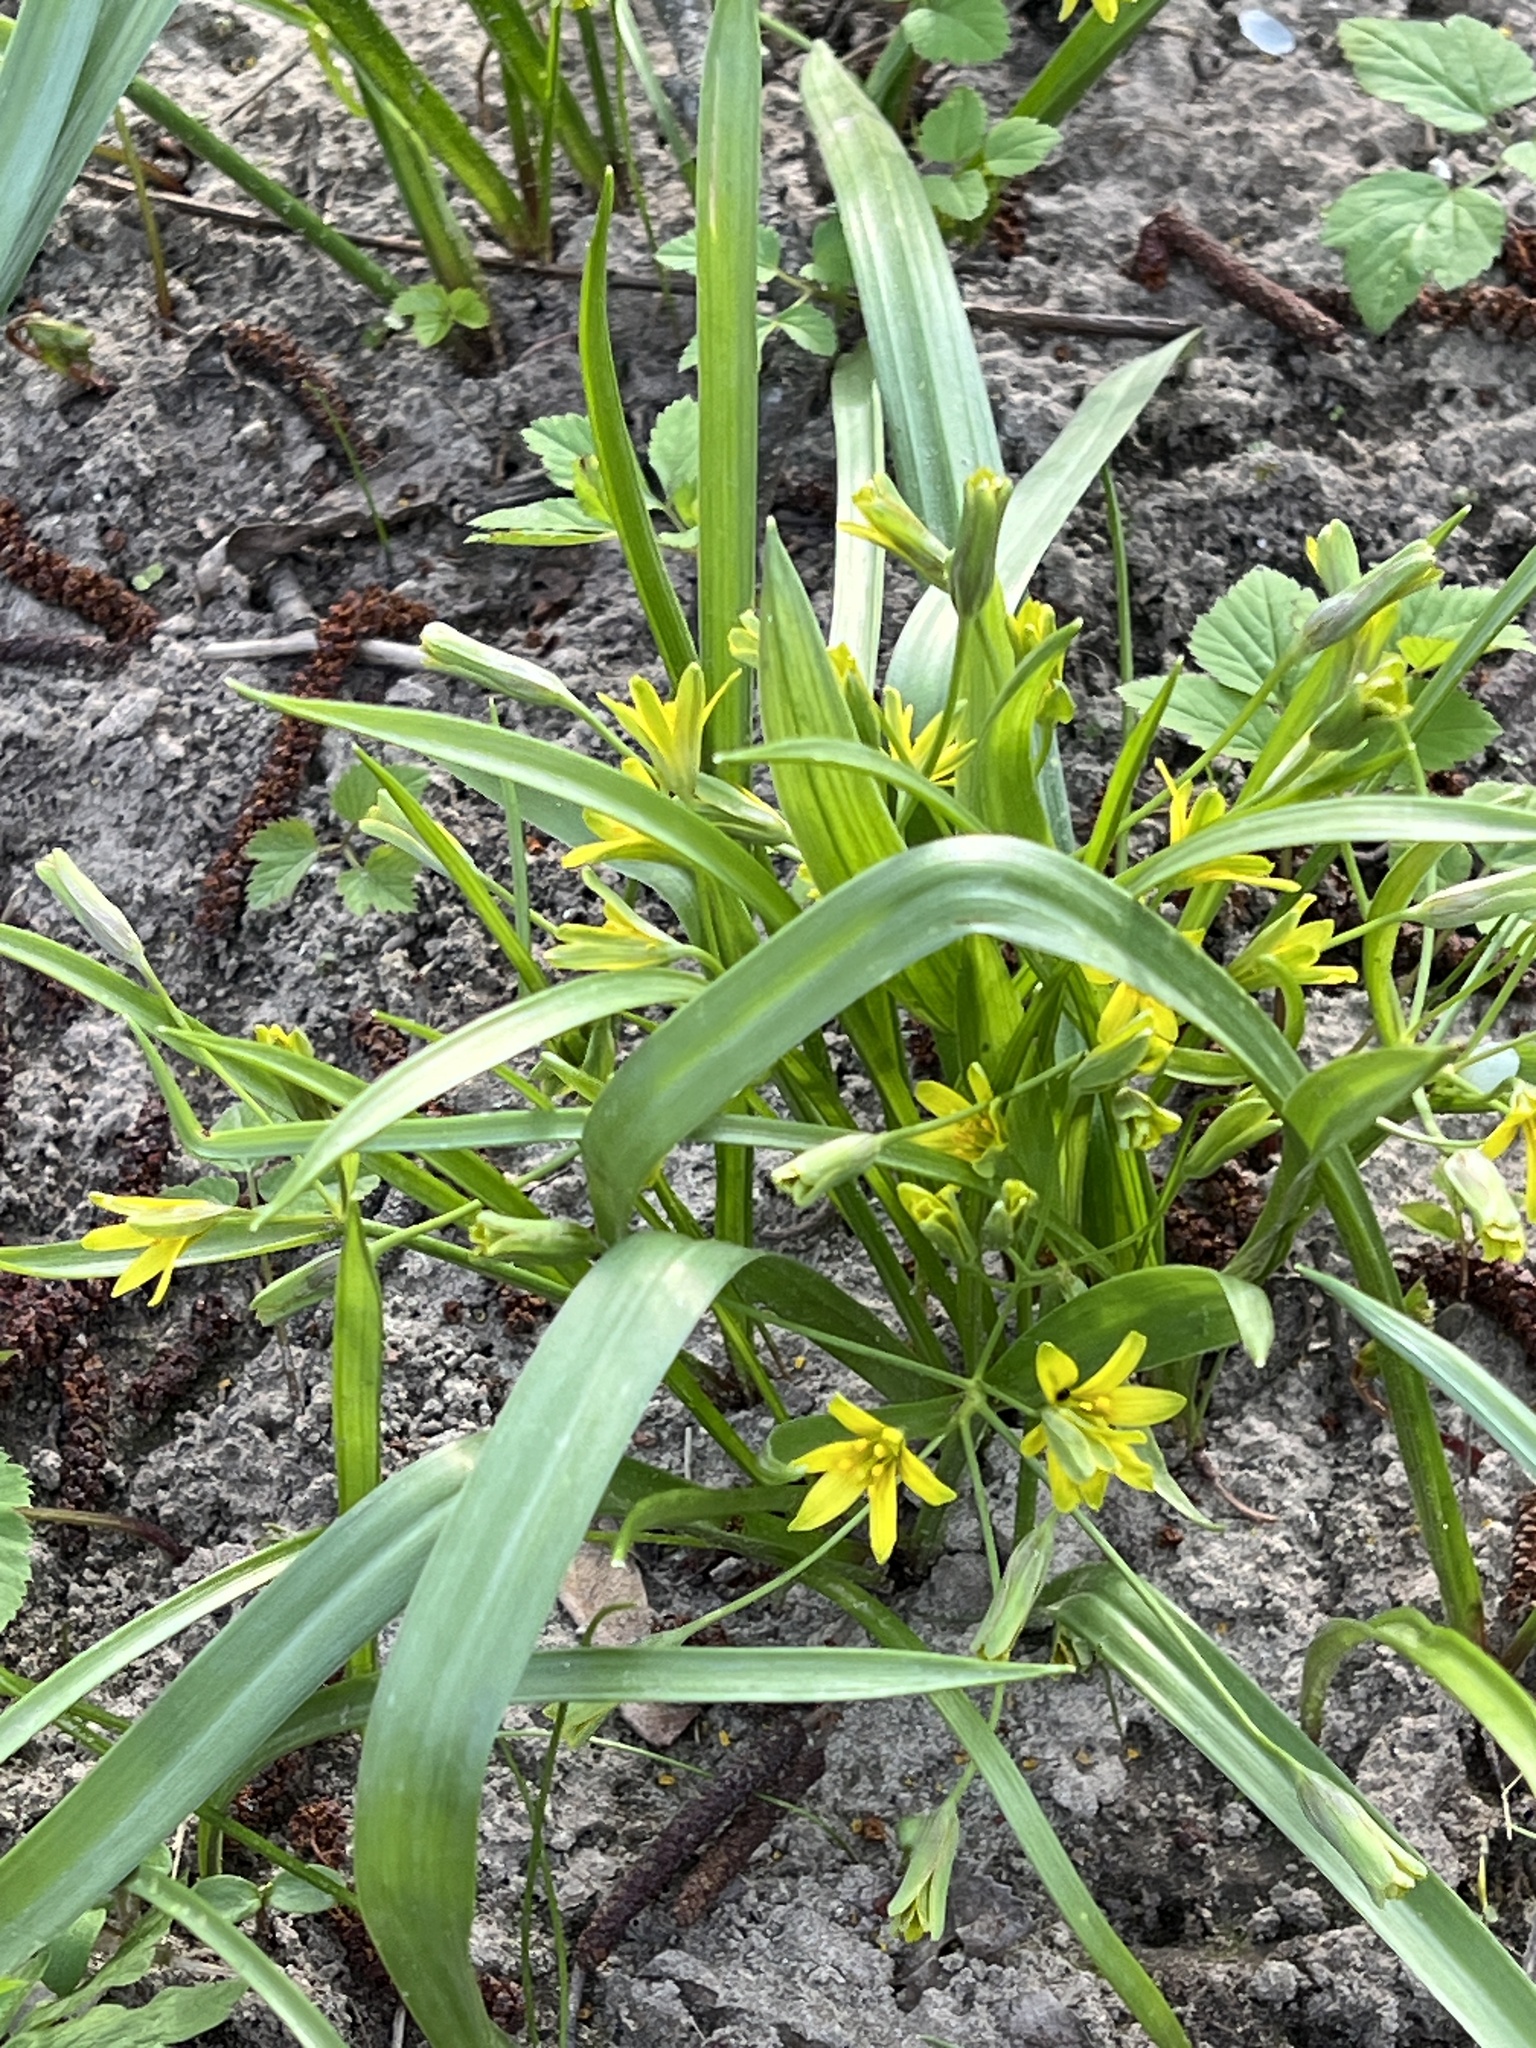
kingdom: Plantae
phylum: Tracheophyta
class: Liliopsida
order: Liliales
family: Liliaceae
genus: Gagea
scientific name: Gagea lutea
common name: Yellow star-of-bethlehem
